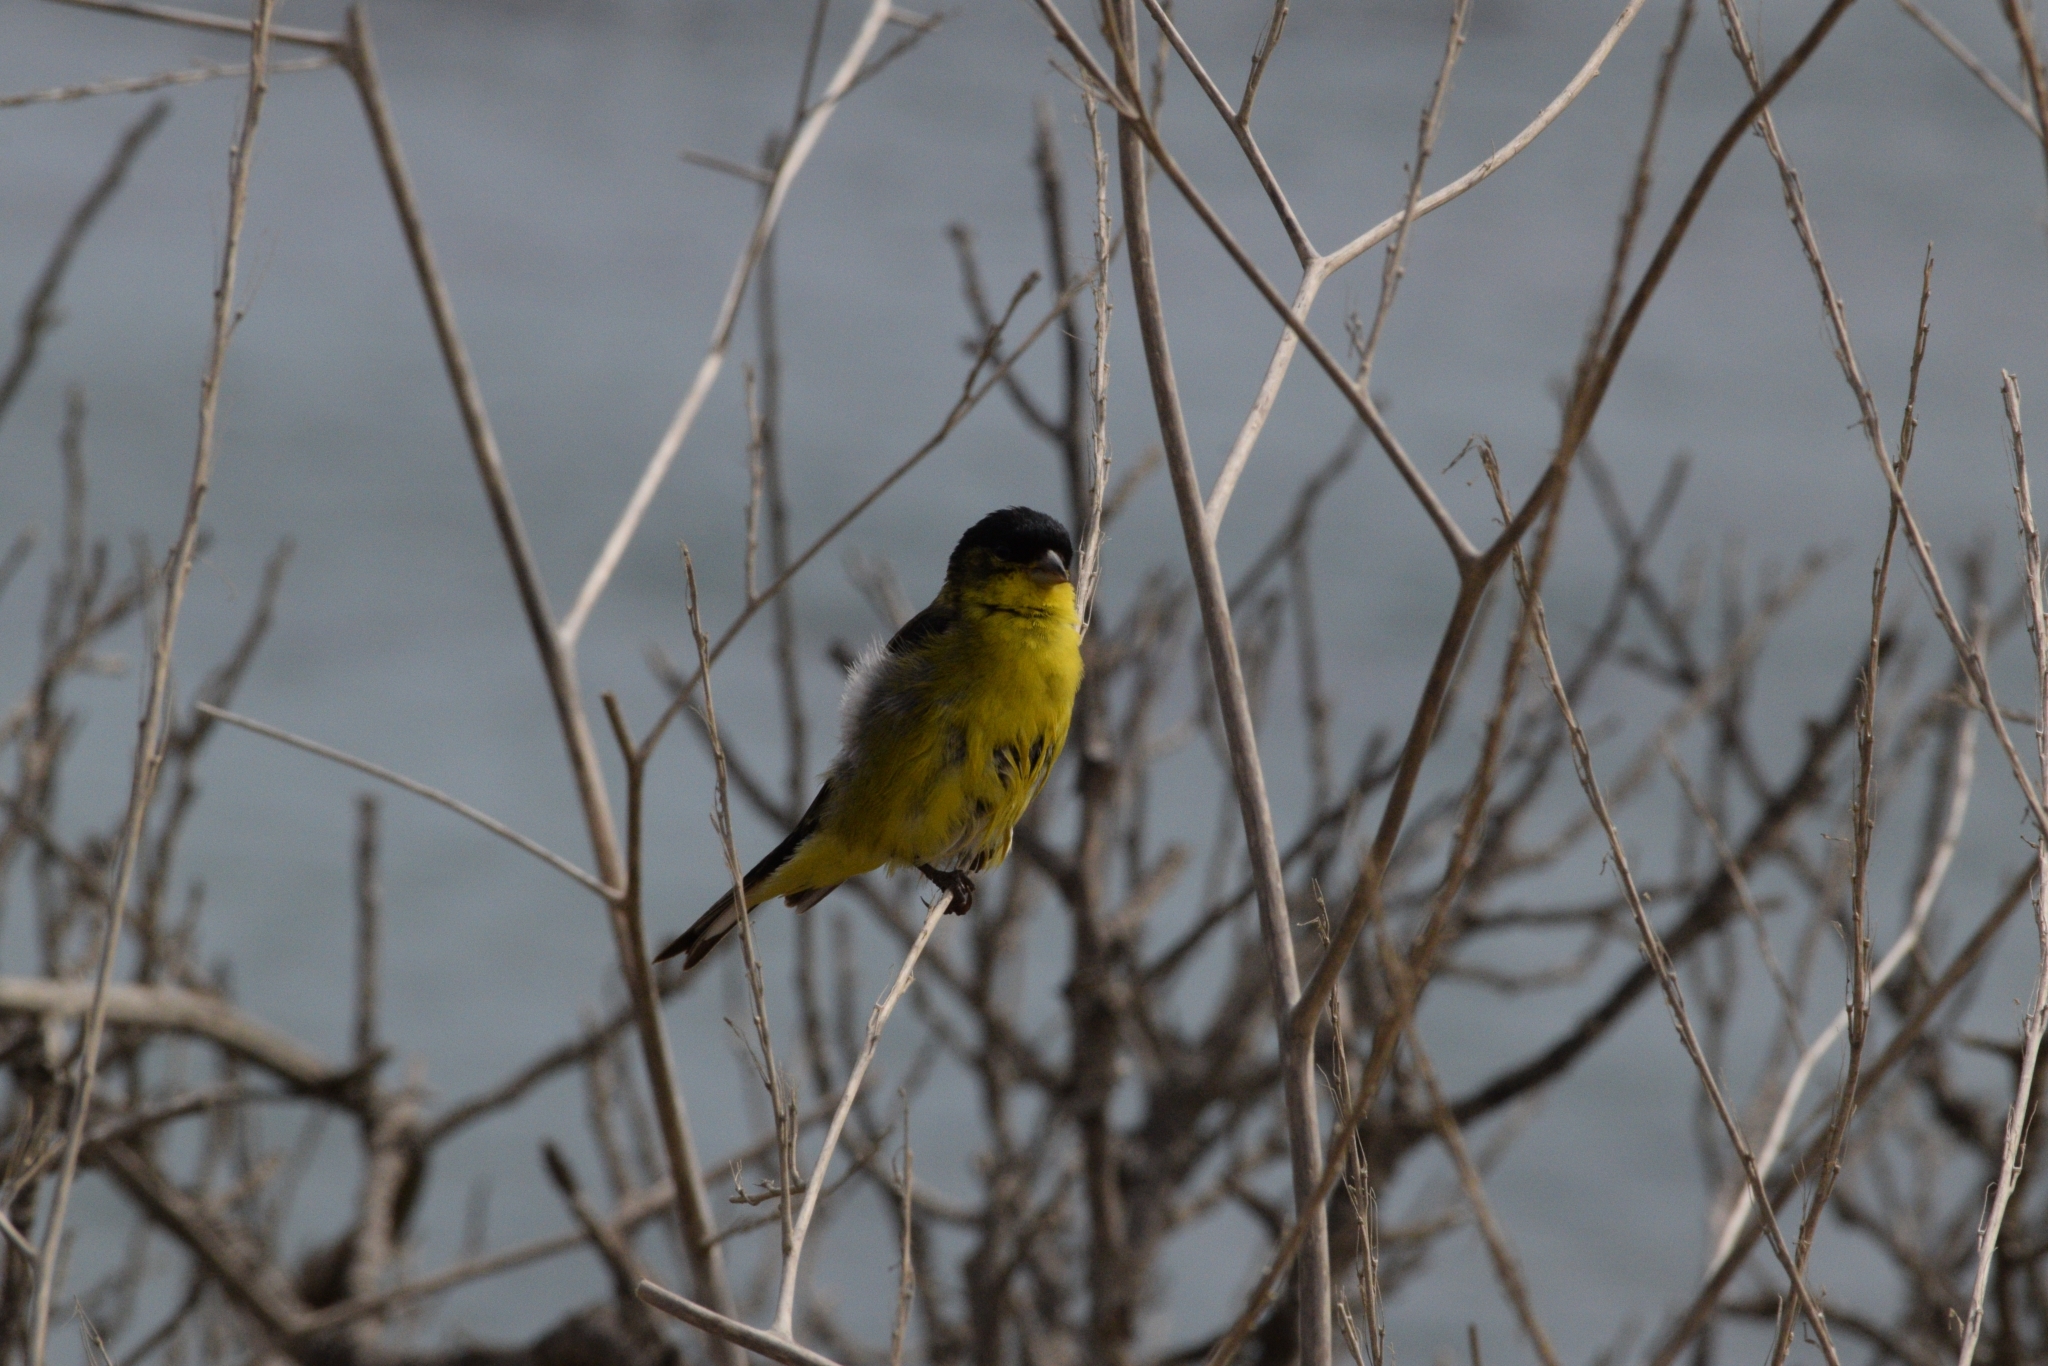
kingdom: Animalia
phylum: Chordata
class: Aves
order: Passeriformes
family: Fringillidae
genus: Spinus
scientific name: Spinus psaltria
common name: Lesser goldfinch
